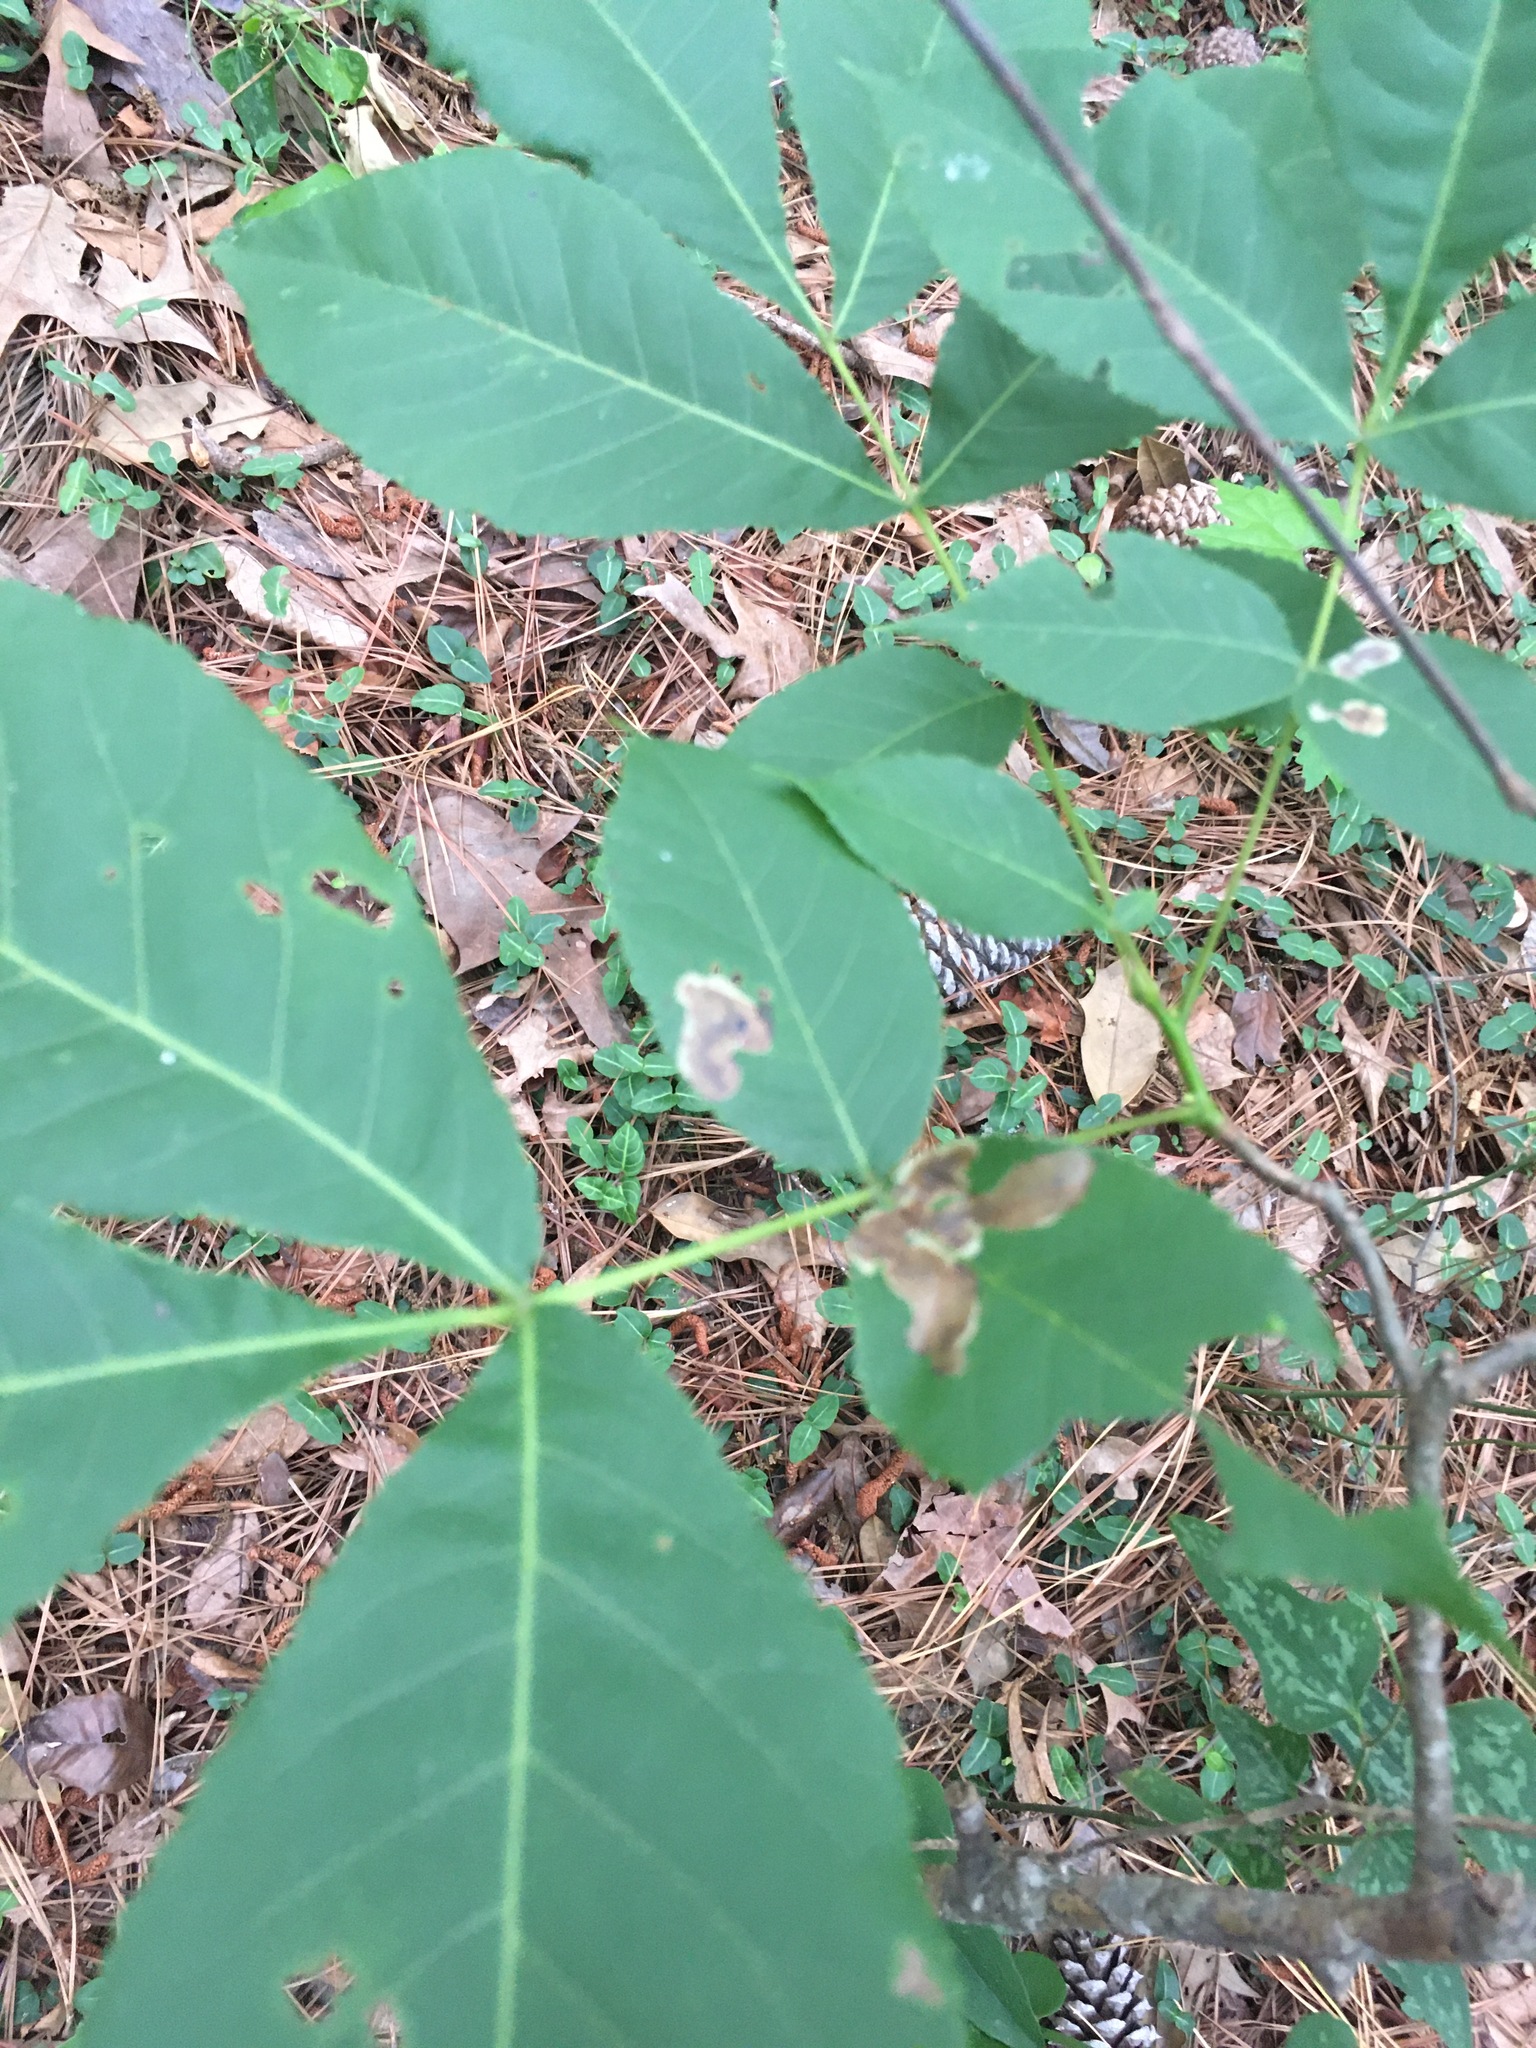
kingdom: Animalia
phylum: Arthropoda
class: Insecta
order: Lepidoptera
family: Gracillariidae
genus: Cameraria
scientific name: Cameraria caryaefoliella
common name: Pecan leafminer moth
